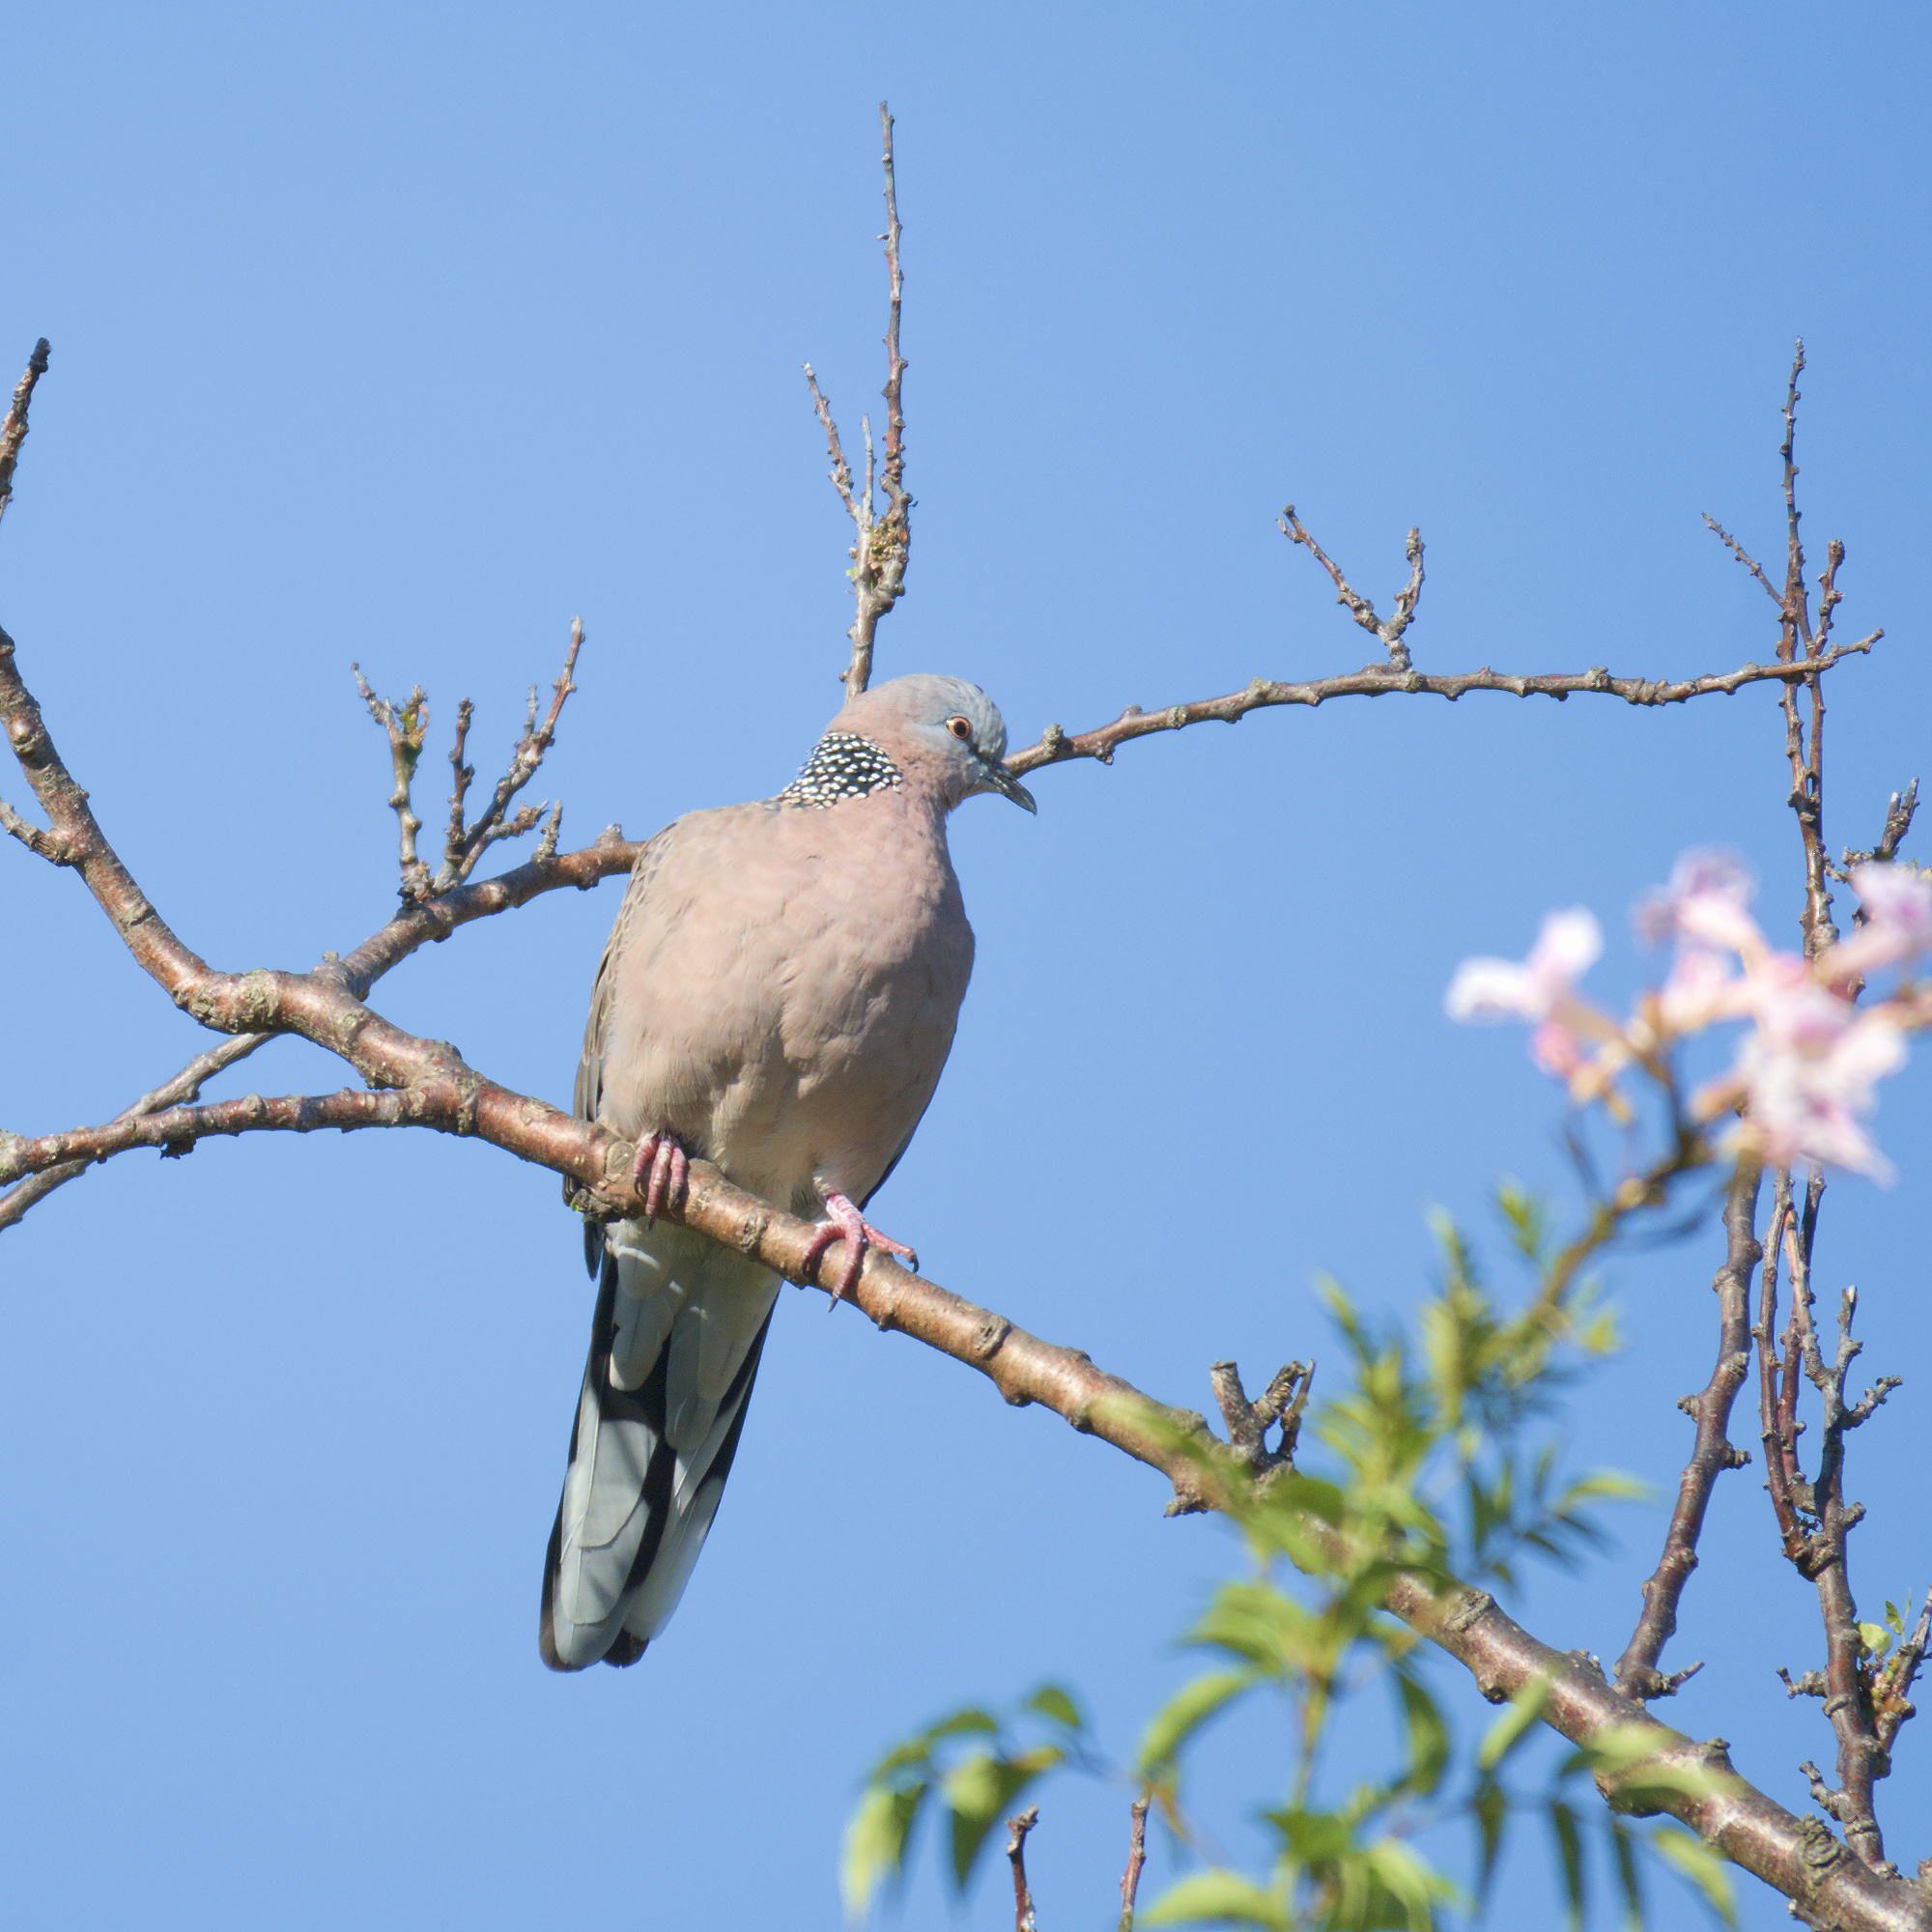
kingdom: Animalia
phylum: Chordata
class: Aves
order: Columbiformes
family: Columbidae
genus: Spilopelia
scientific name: Spilopelia chinensis
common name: Spotted dove
